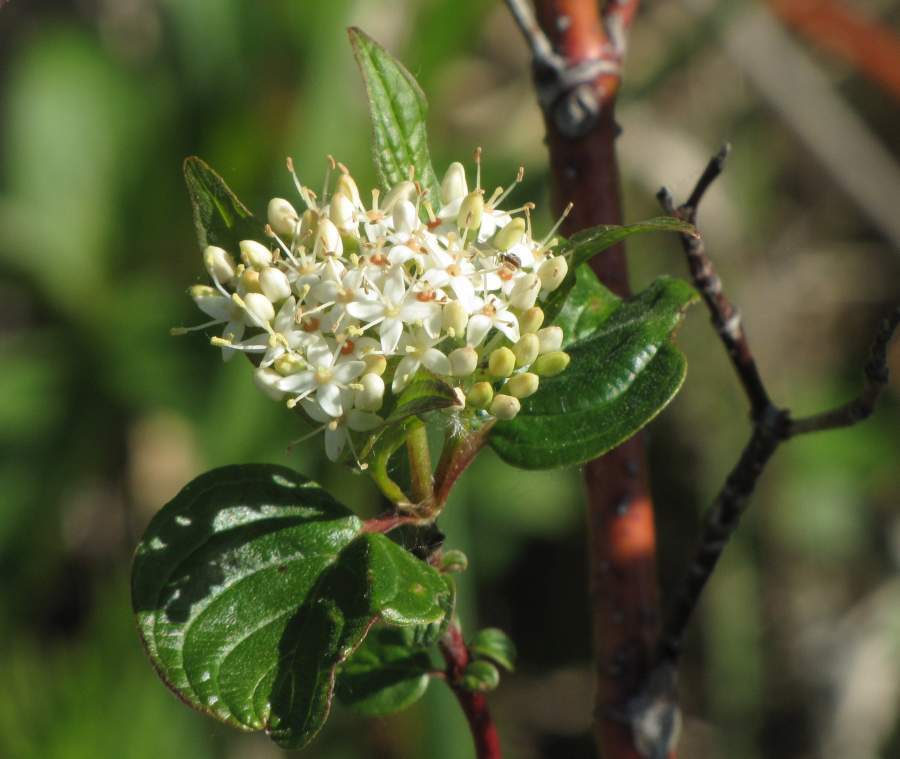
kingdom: Plantae
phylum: Tracheophyta
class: Magnoliopsida
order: Cornales
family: Cornaceae
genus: Cornus
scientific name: Cornus sericea
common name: Red-osier dogwood
